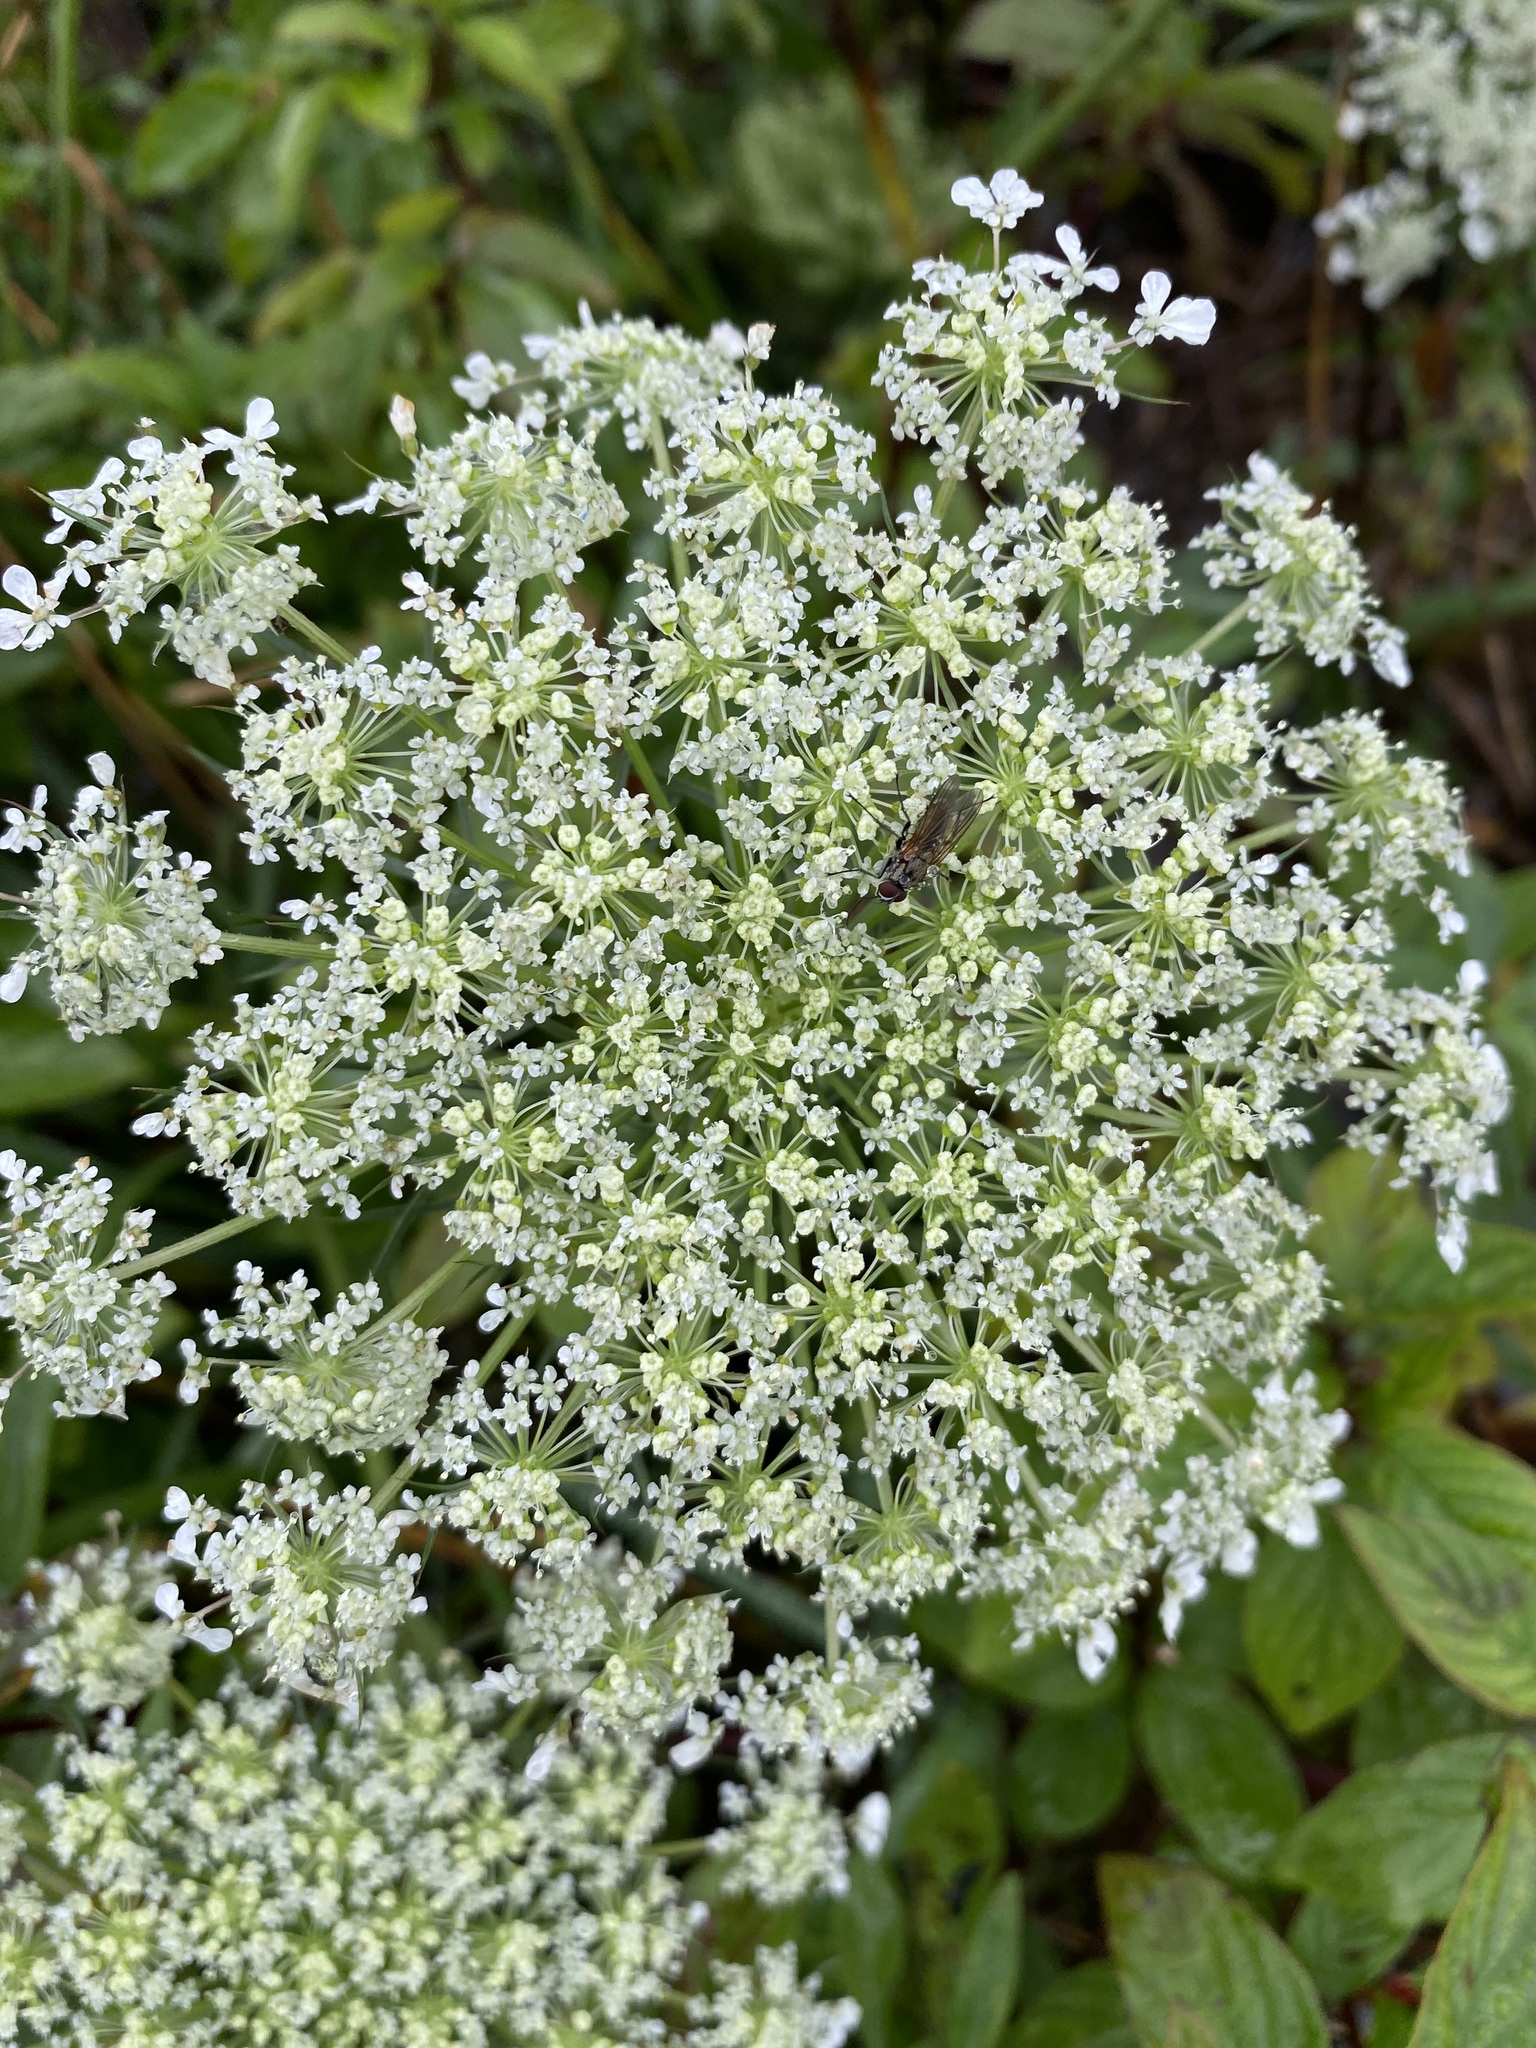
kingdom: Plantae
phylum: Tracheophyta
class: Magnoliopsida
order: Apiales
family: Apiaceae
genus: Daucus
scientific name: Daucus carota
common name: Wild carrot
